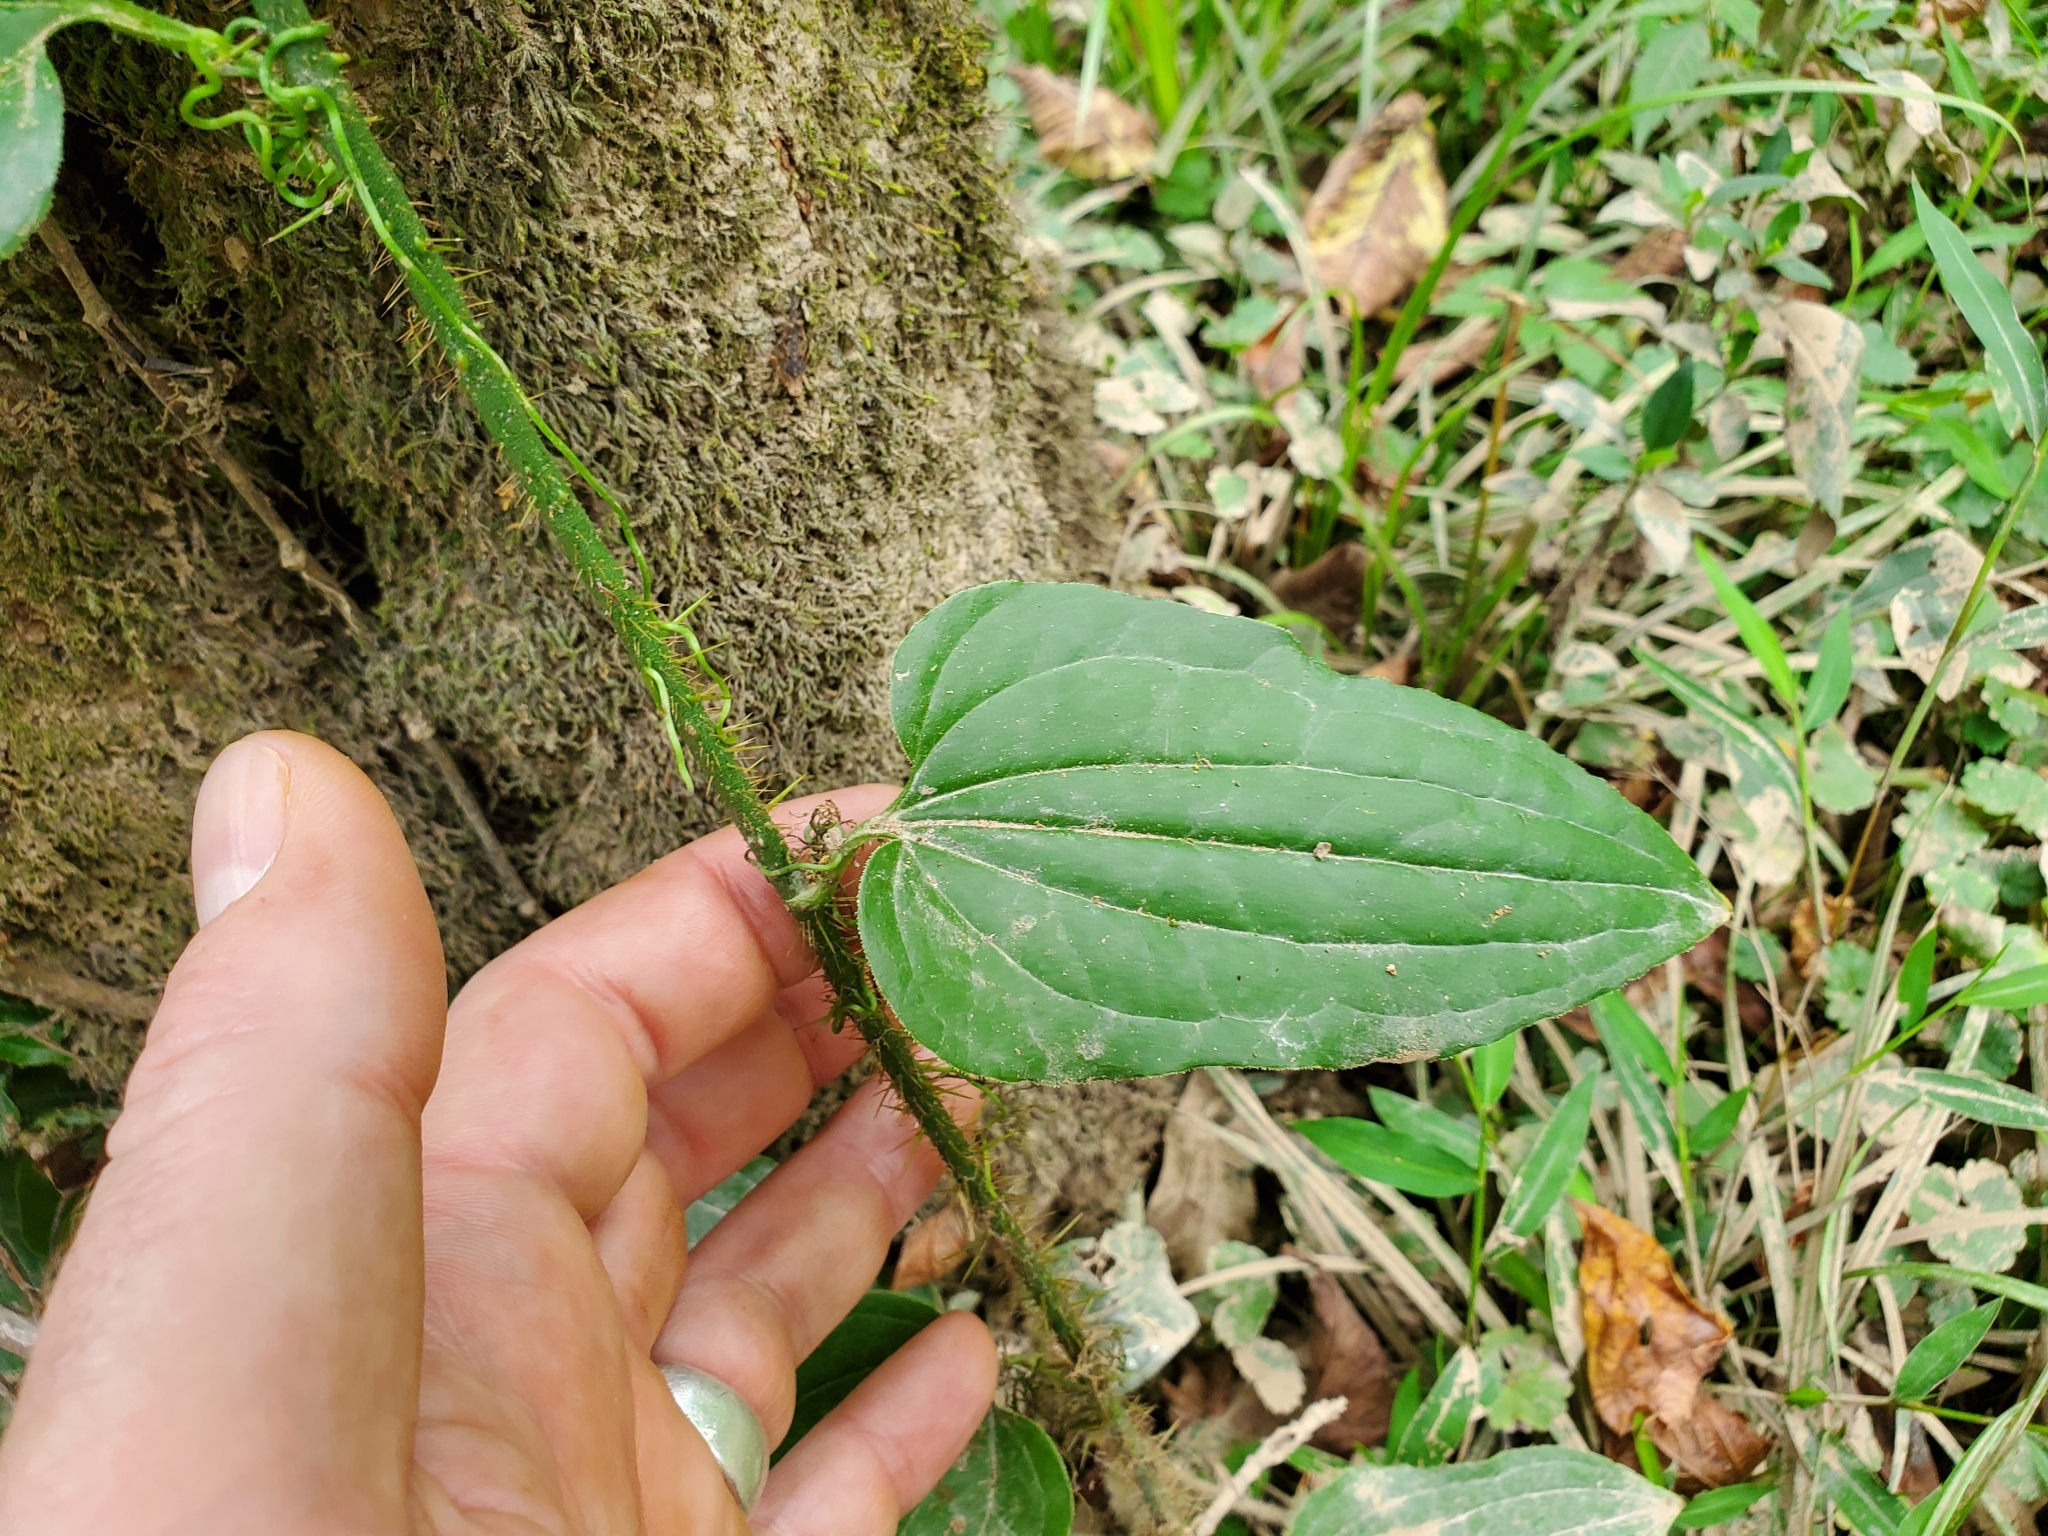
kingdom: Plantae
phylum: Tracheophyta
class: Liliopsida
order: Liliales
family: Smilacaceae
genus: Smilax
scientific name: Smilax tamnoides
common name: Hellfetter
